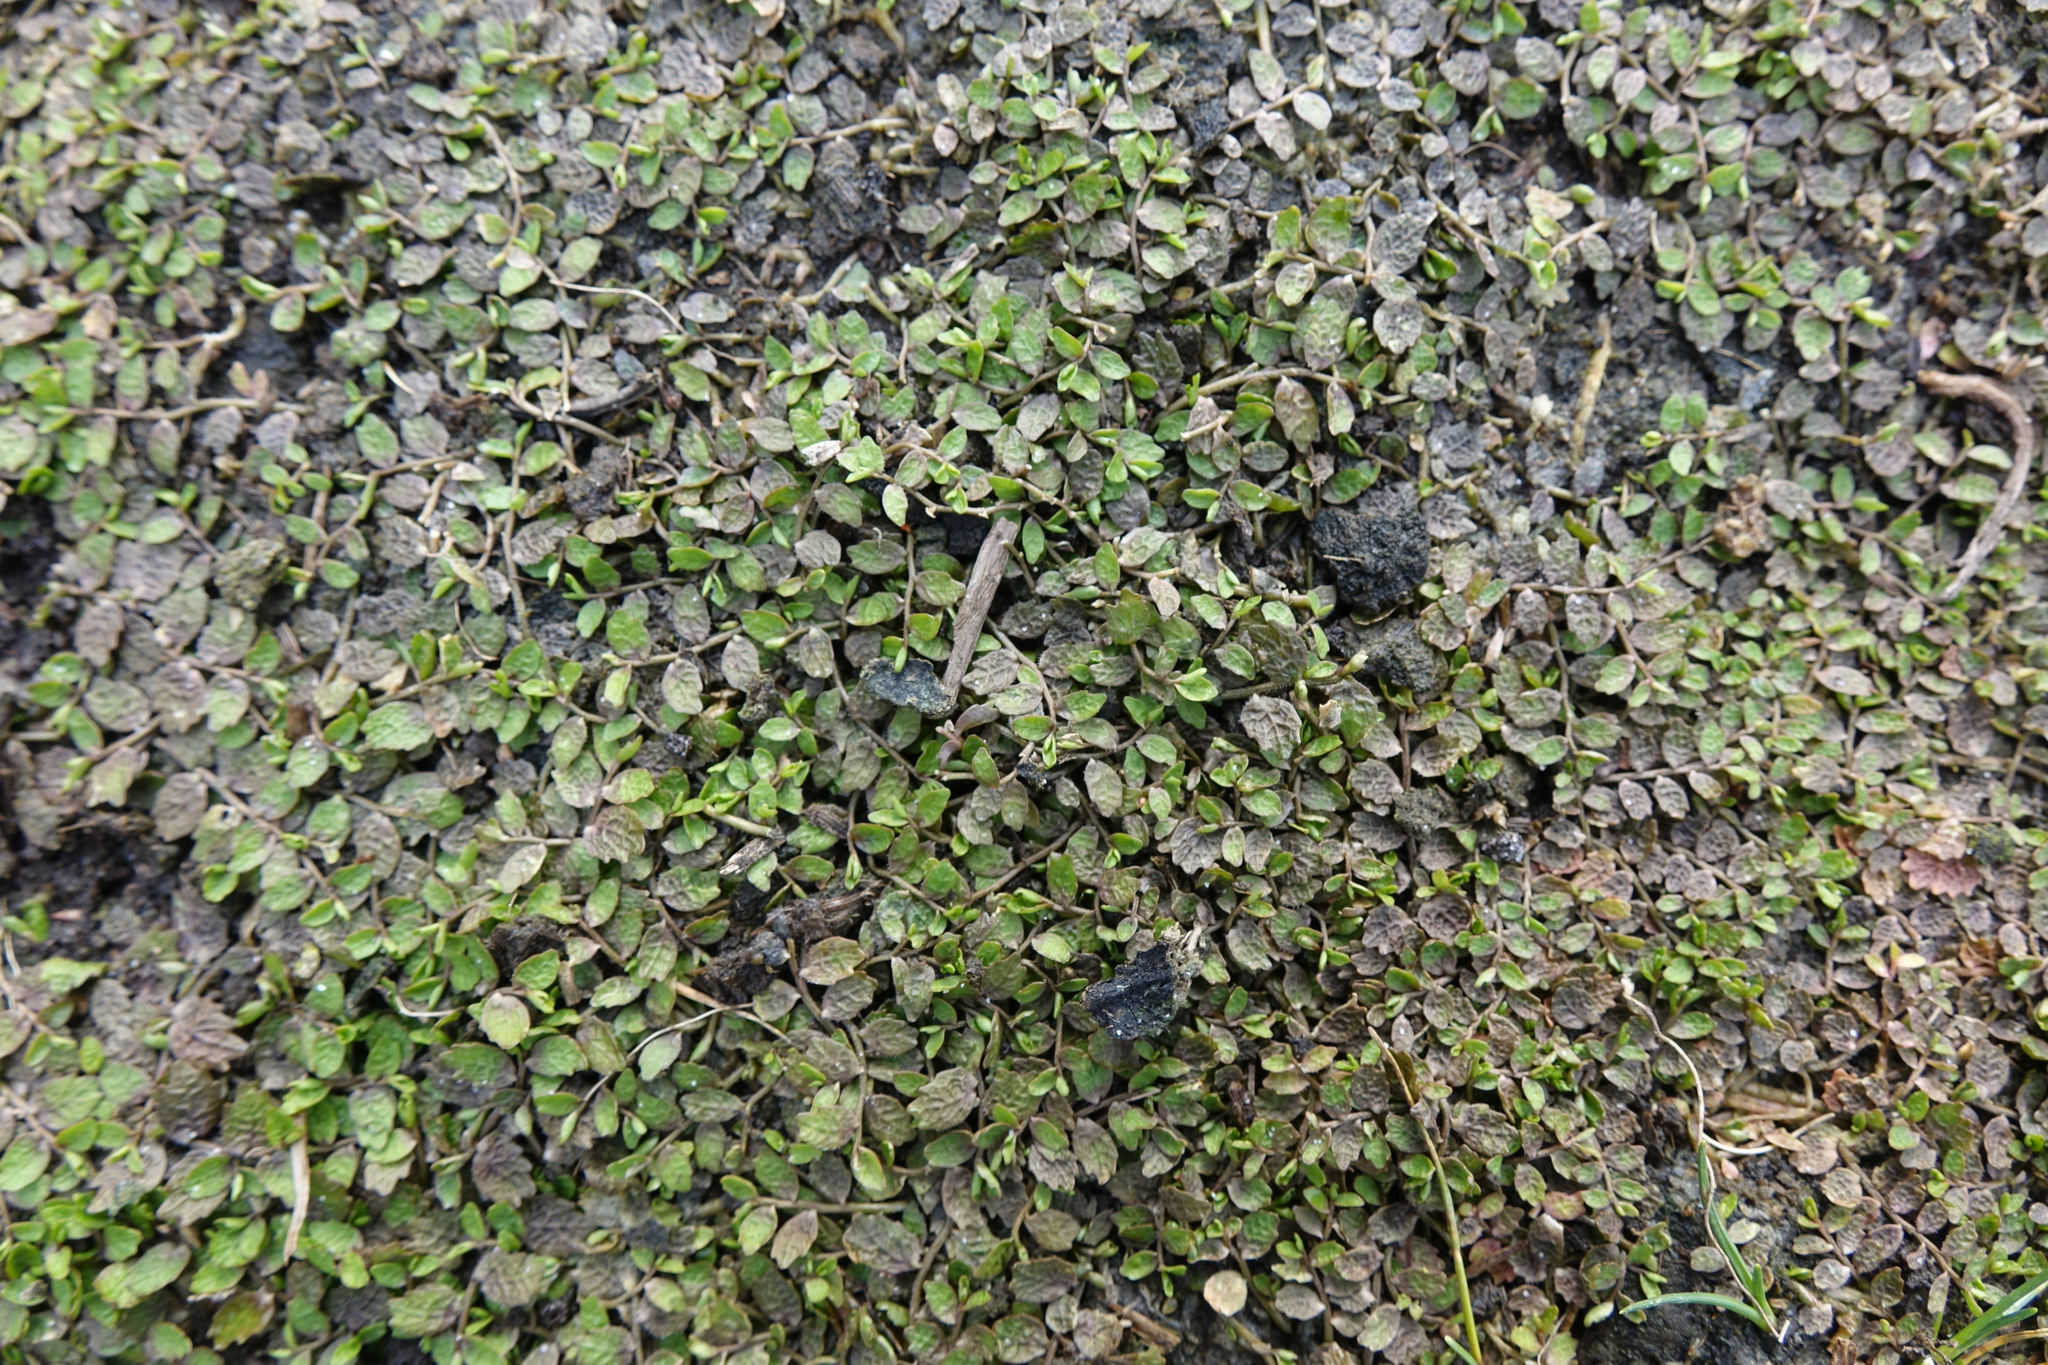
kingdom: Plantae
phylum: Tracheophyta
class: Magnoliopsida
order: Asterales
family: Campanulaceae
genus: Lobelia
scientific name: Lobelia perpusilla
